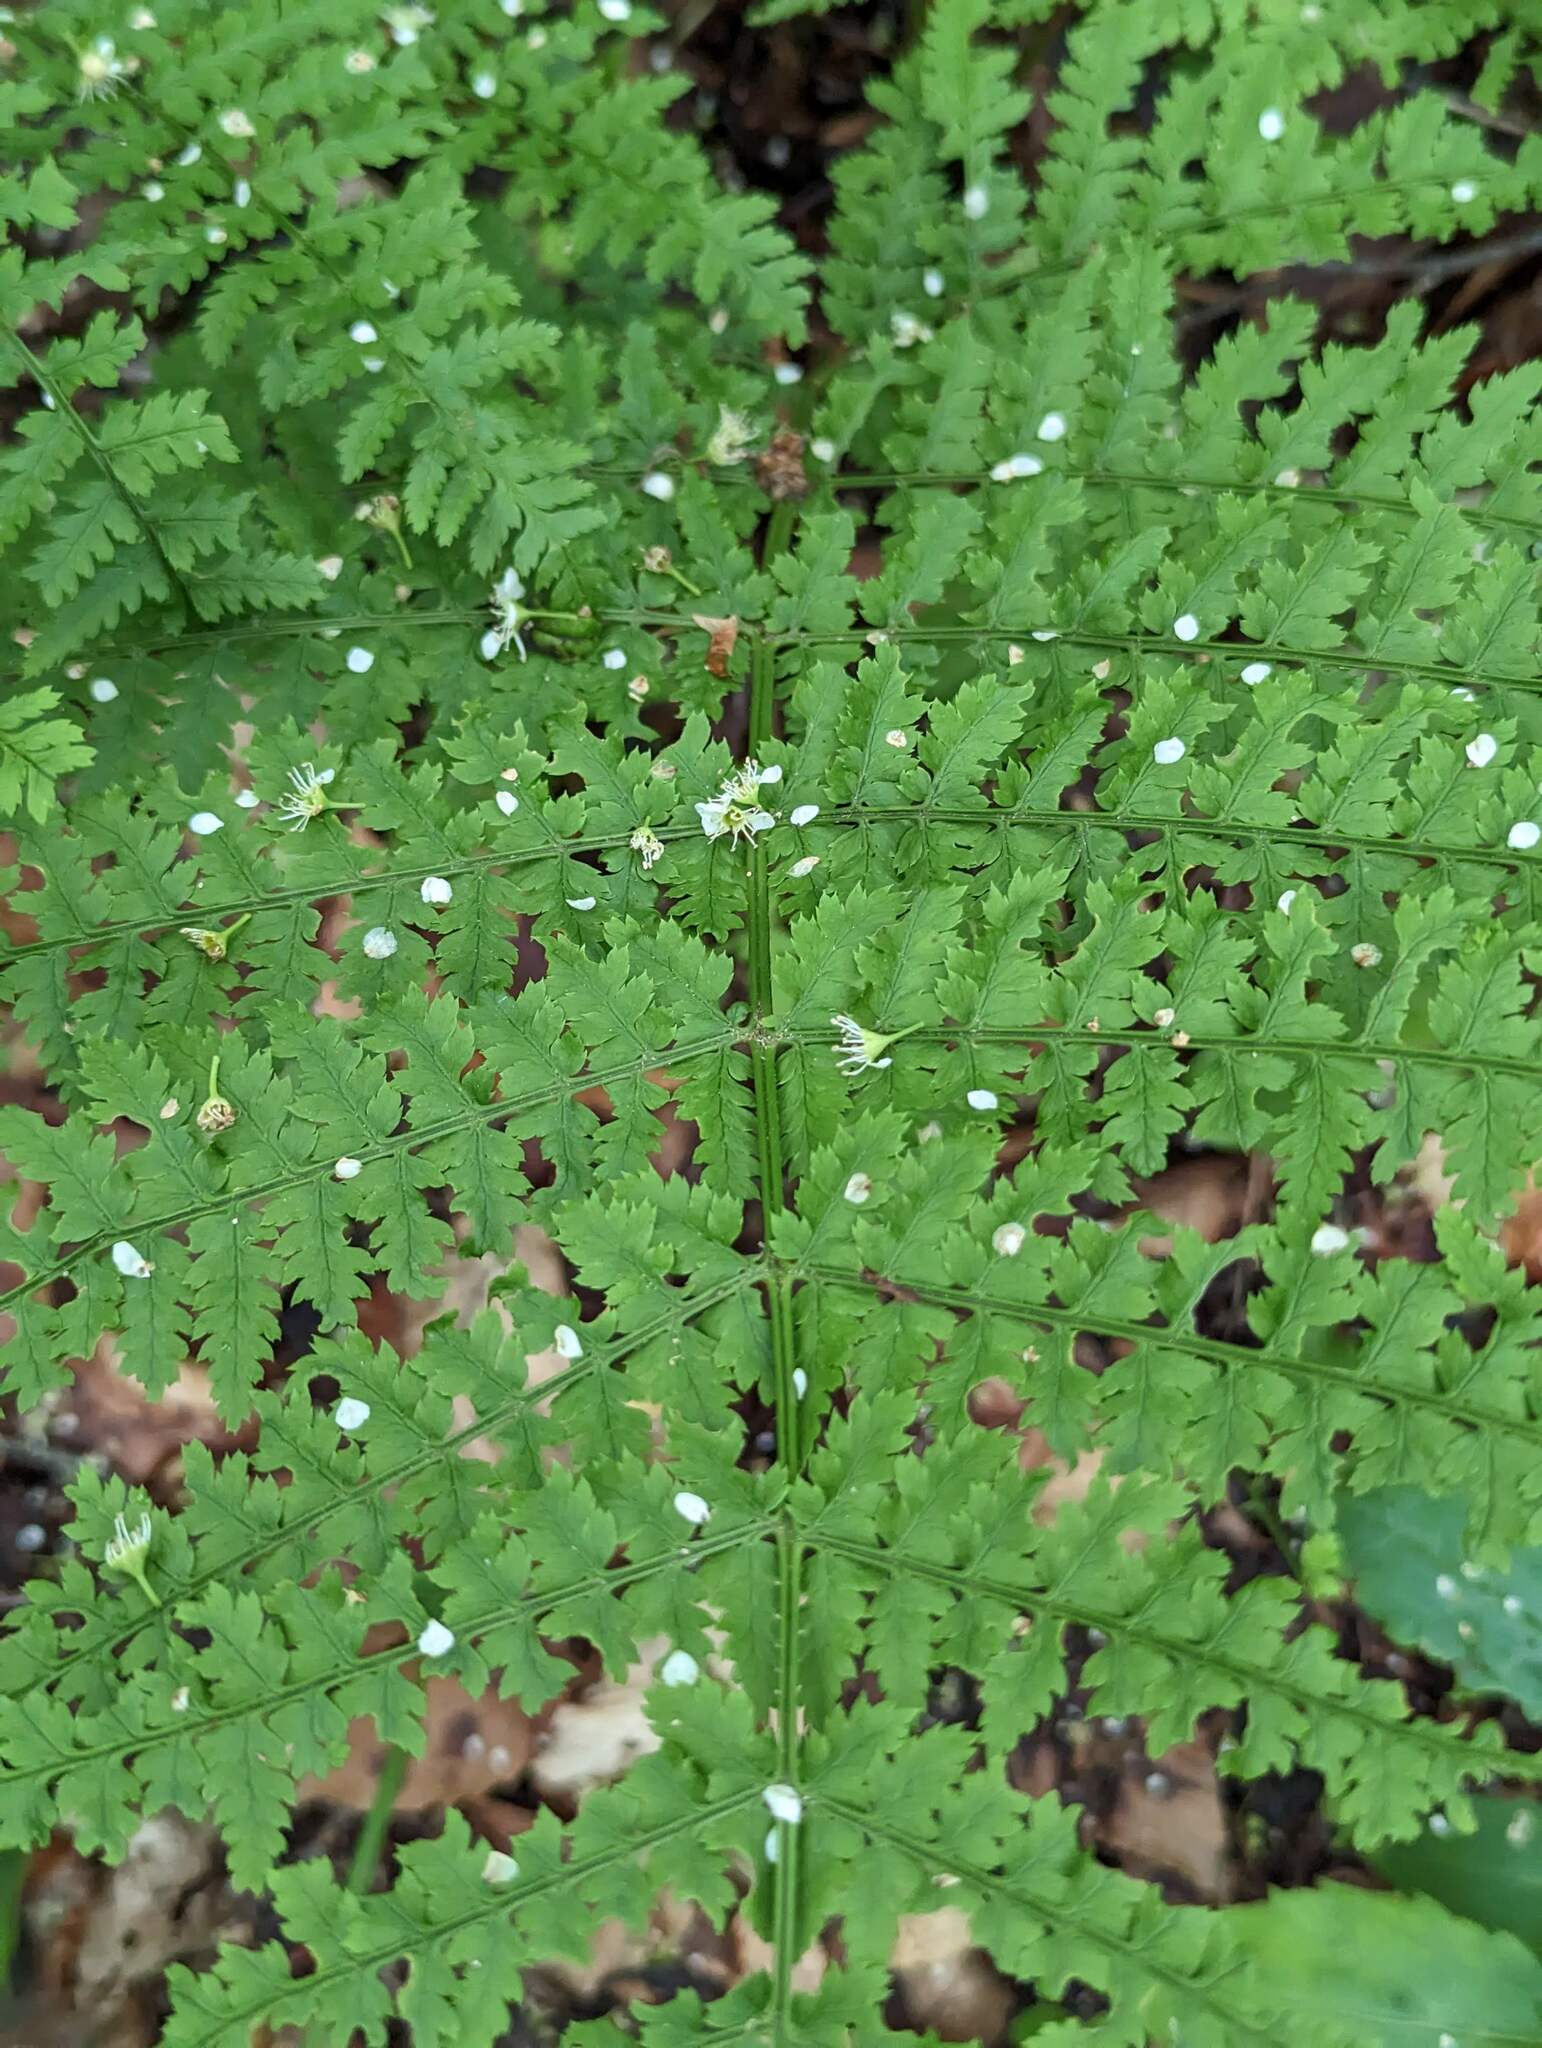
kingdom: Plantae
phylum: Tracheophyta
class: Polypodiopsida
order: Polypodiales
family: Dryopteridaceae
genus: Dryopteris
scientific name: Dryopteris intermedia
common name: Evergreen wood fern
